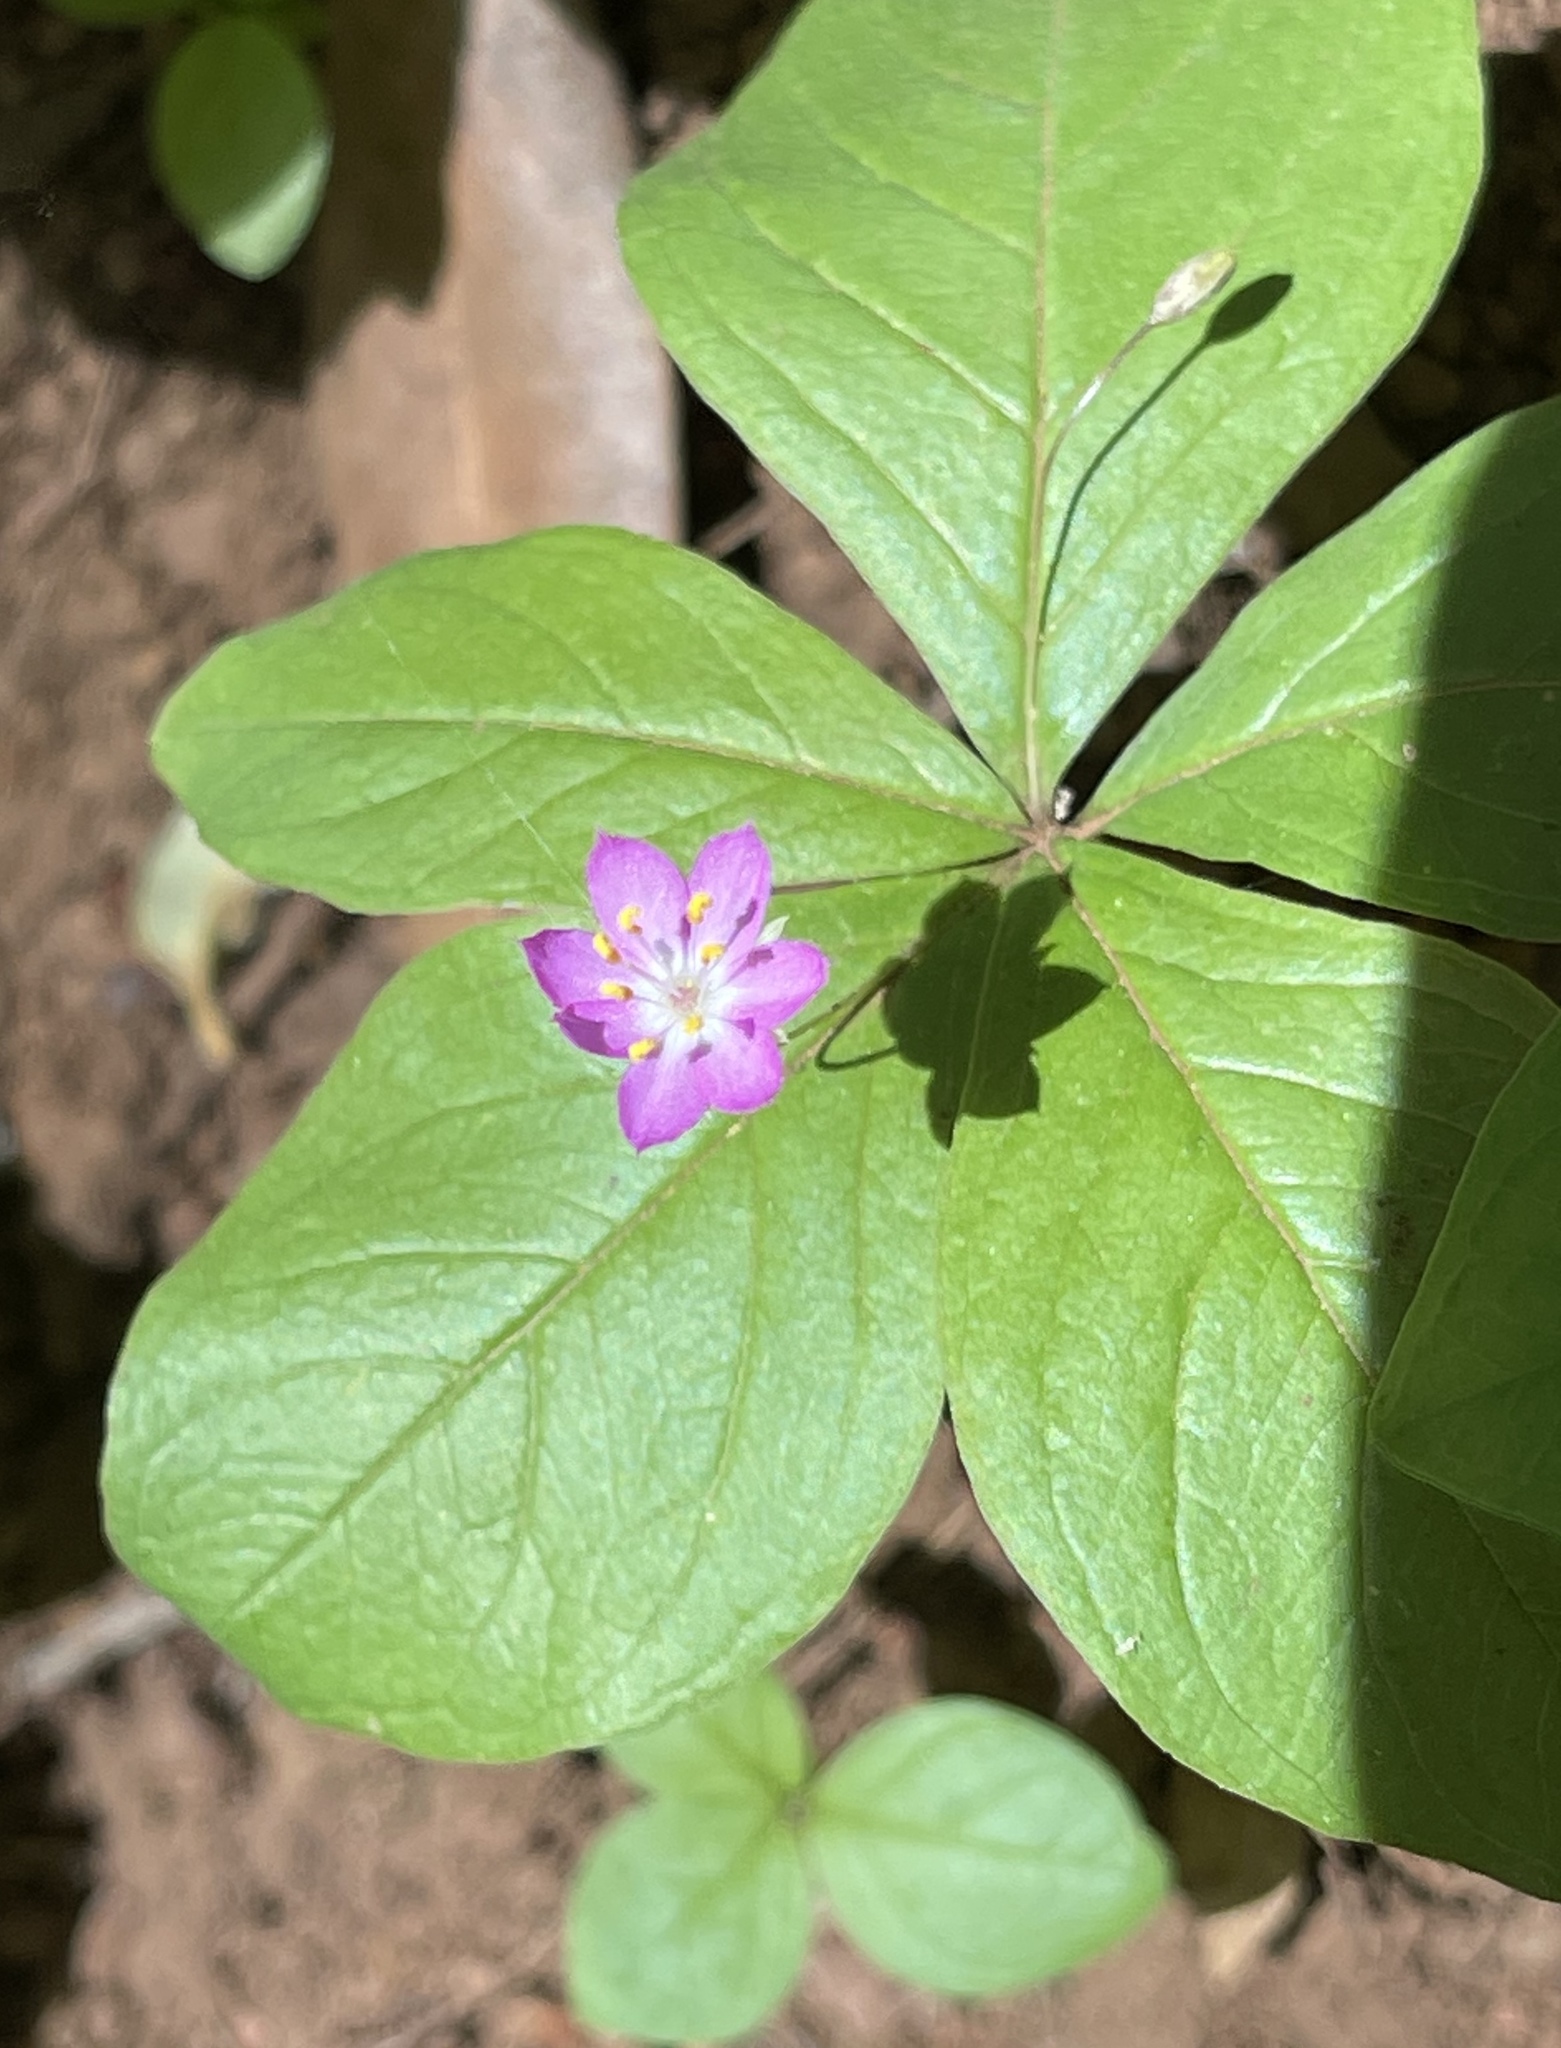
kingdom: Plantae
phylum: Tracheophyta
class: Magnoliopsida
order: Ericales
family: Primulaceae
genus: Lysimachia
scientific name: Lysimachia latifolia
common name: Pacific starflower
